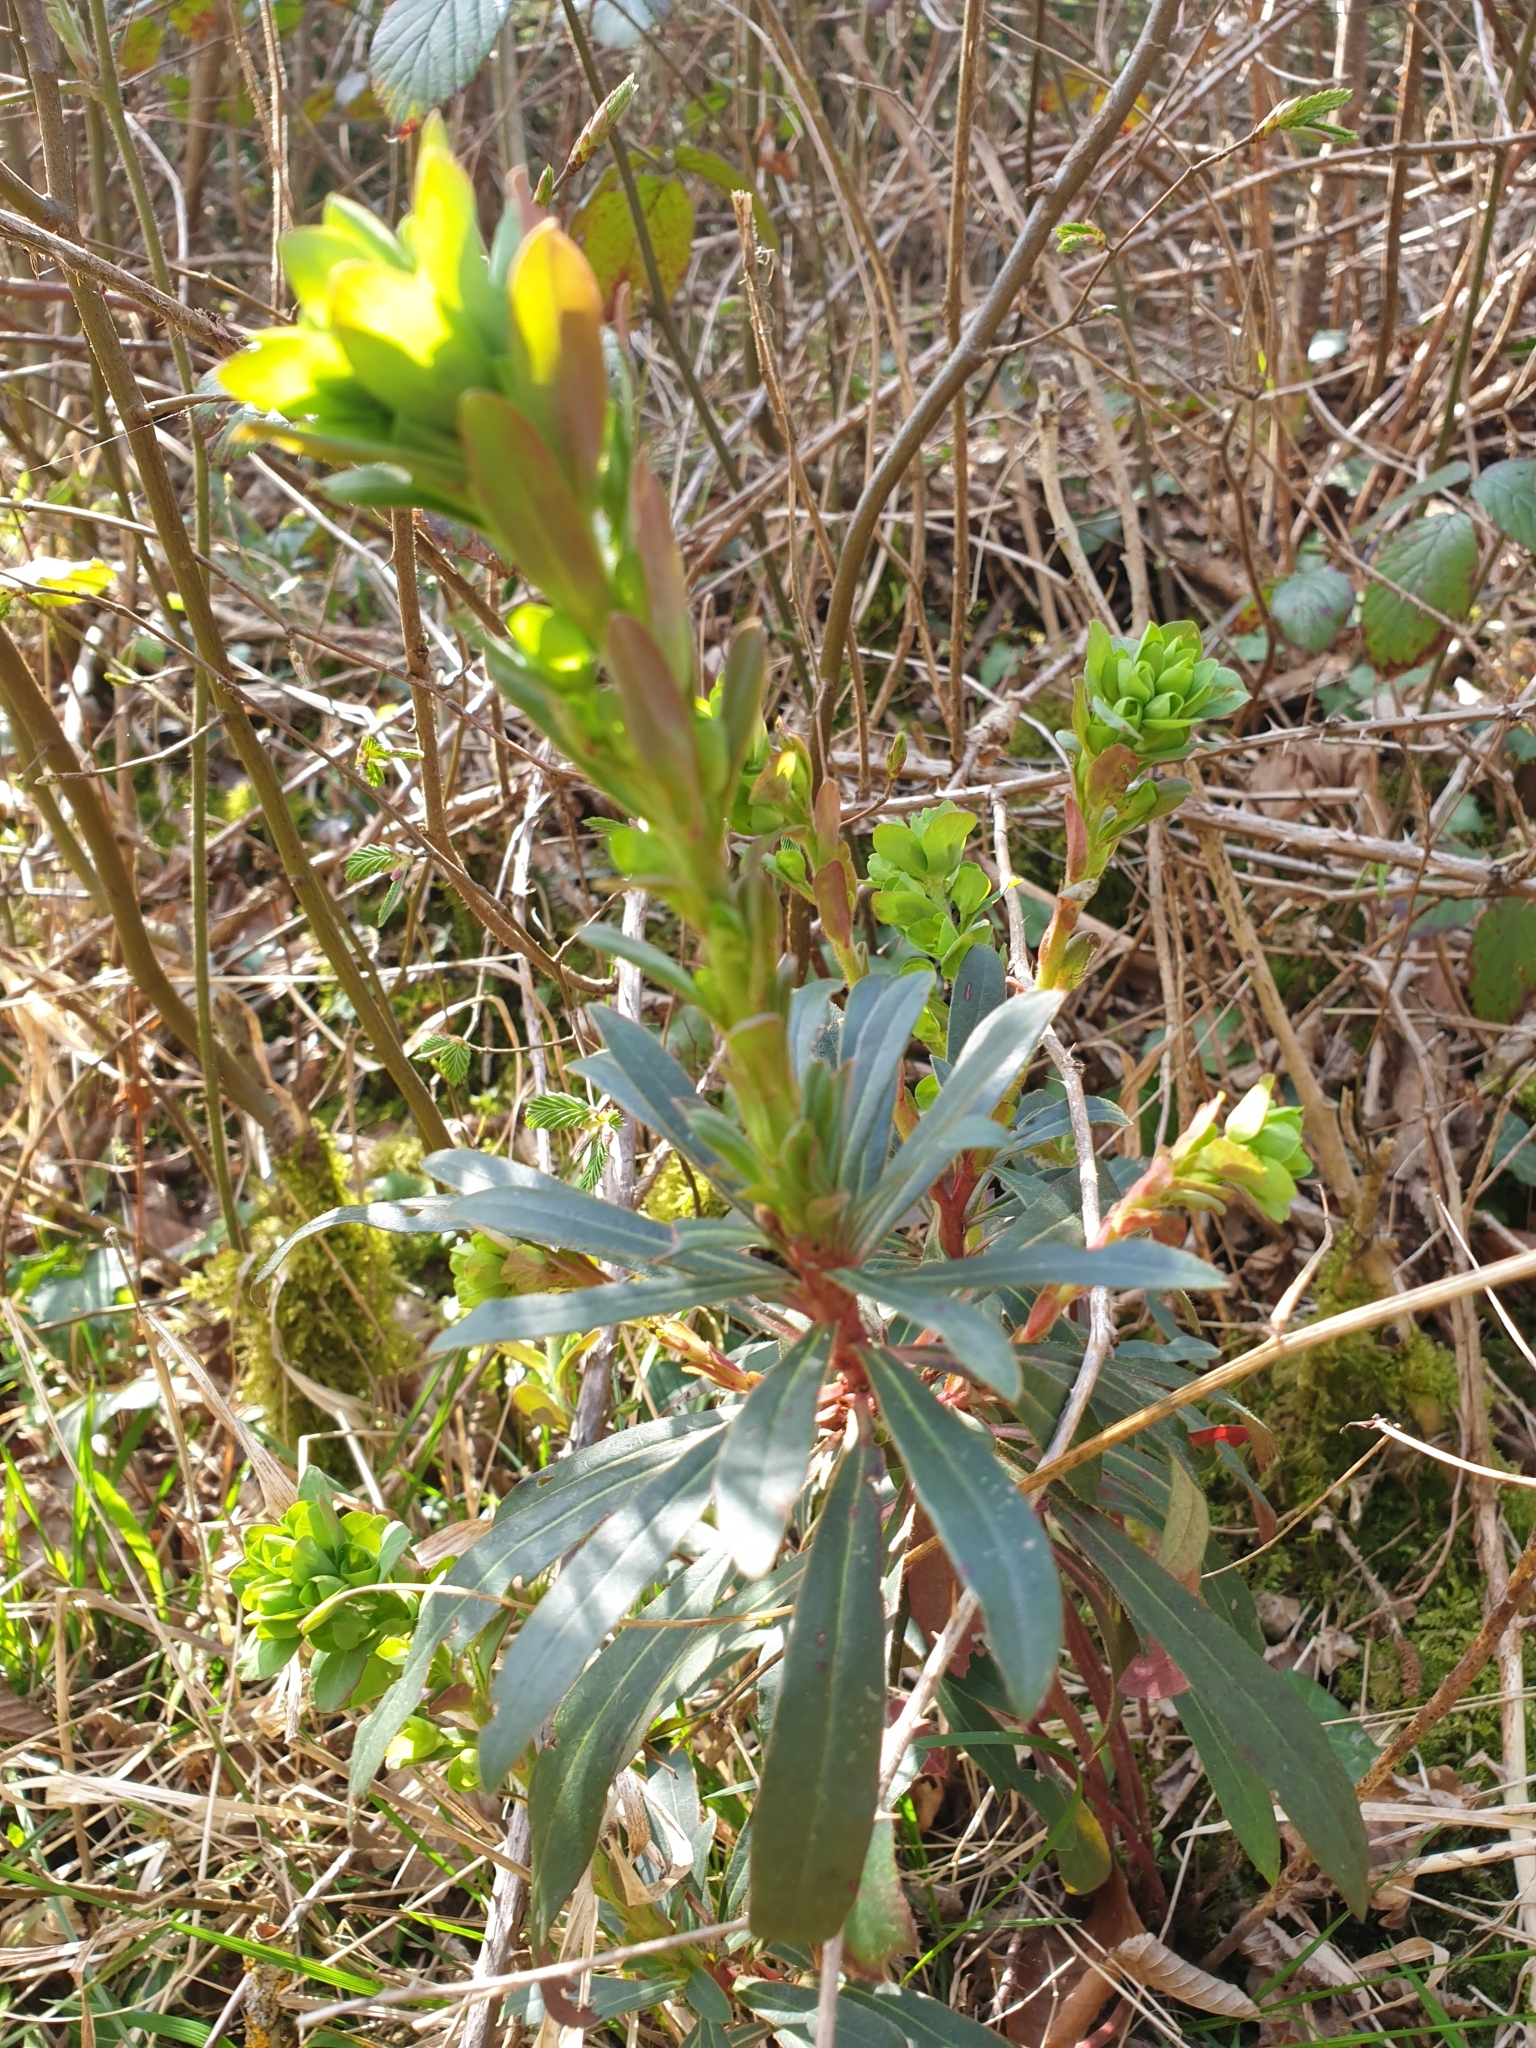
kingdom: Plantae
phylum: Tracheophyta
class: Magnoliopsida
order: Malpighiales
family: Euphorbiaceae
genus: Euphorbia
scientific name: Euphorbia amygdaloides
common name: Wood spurge
